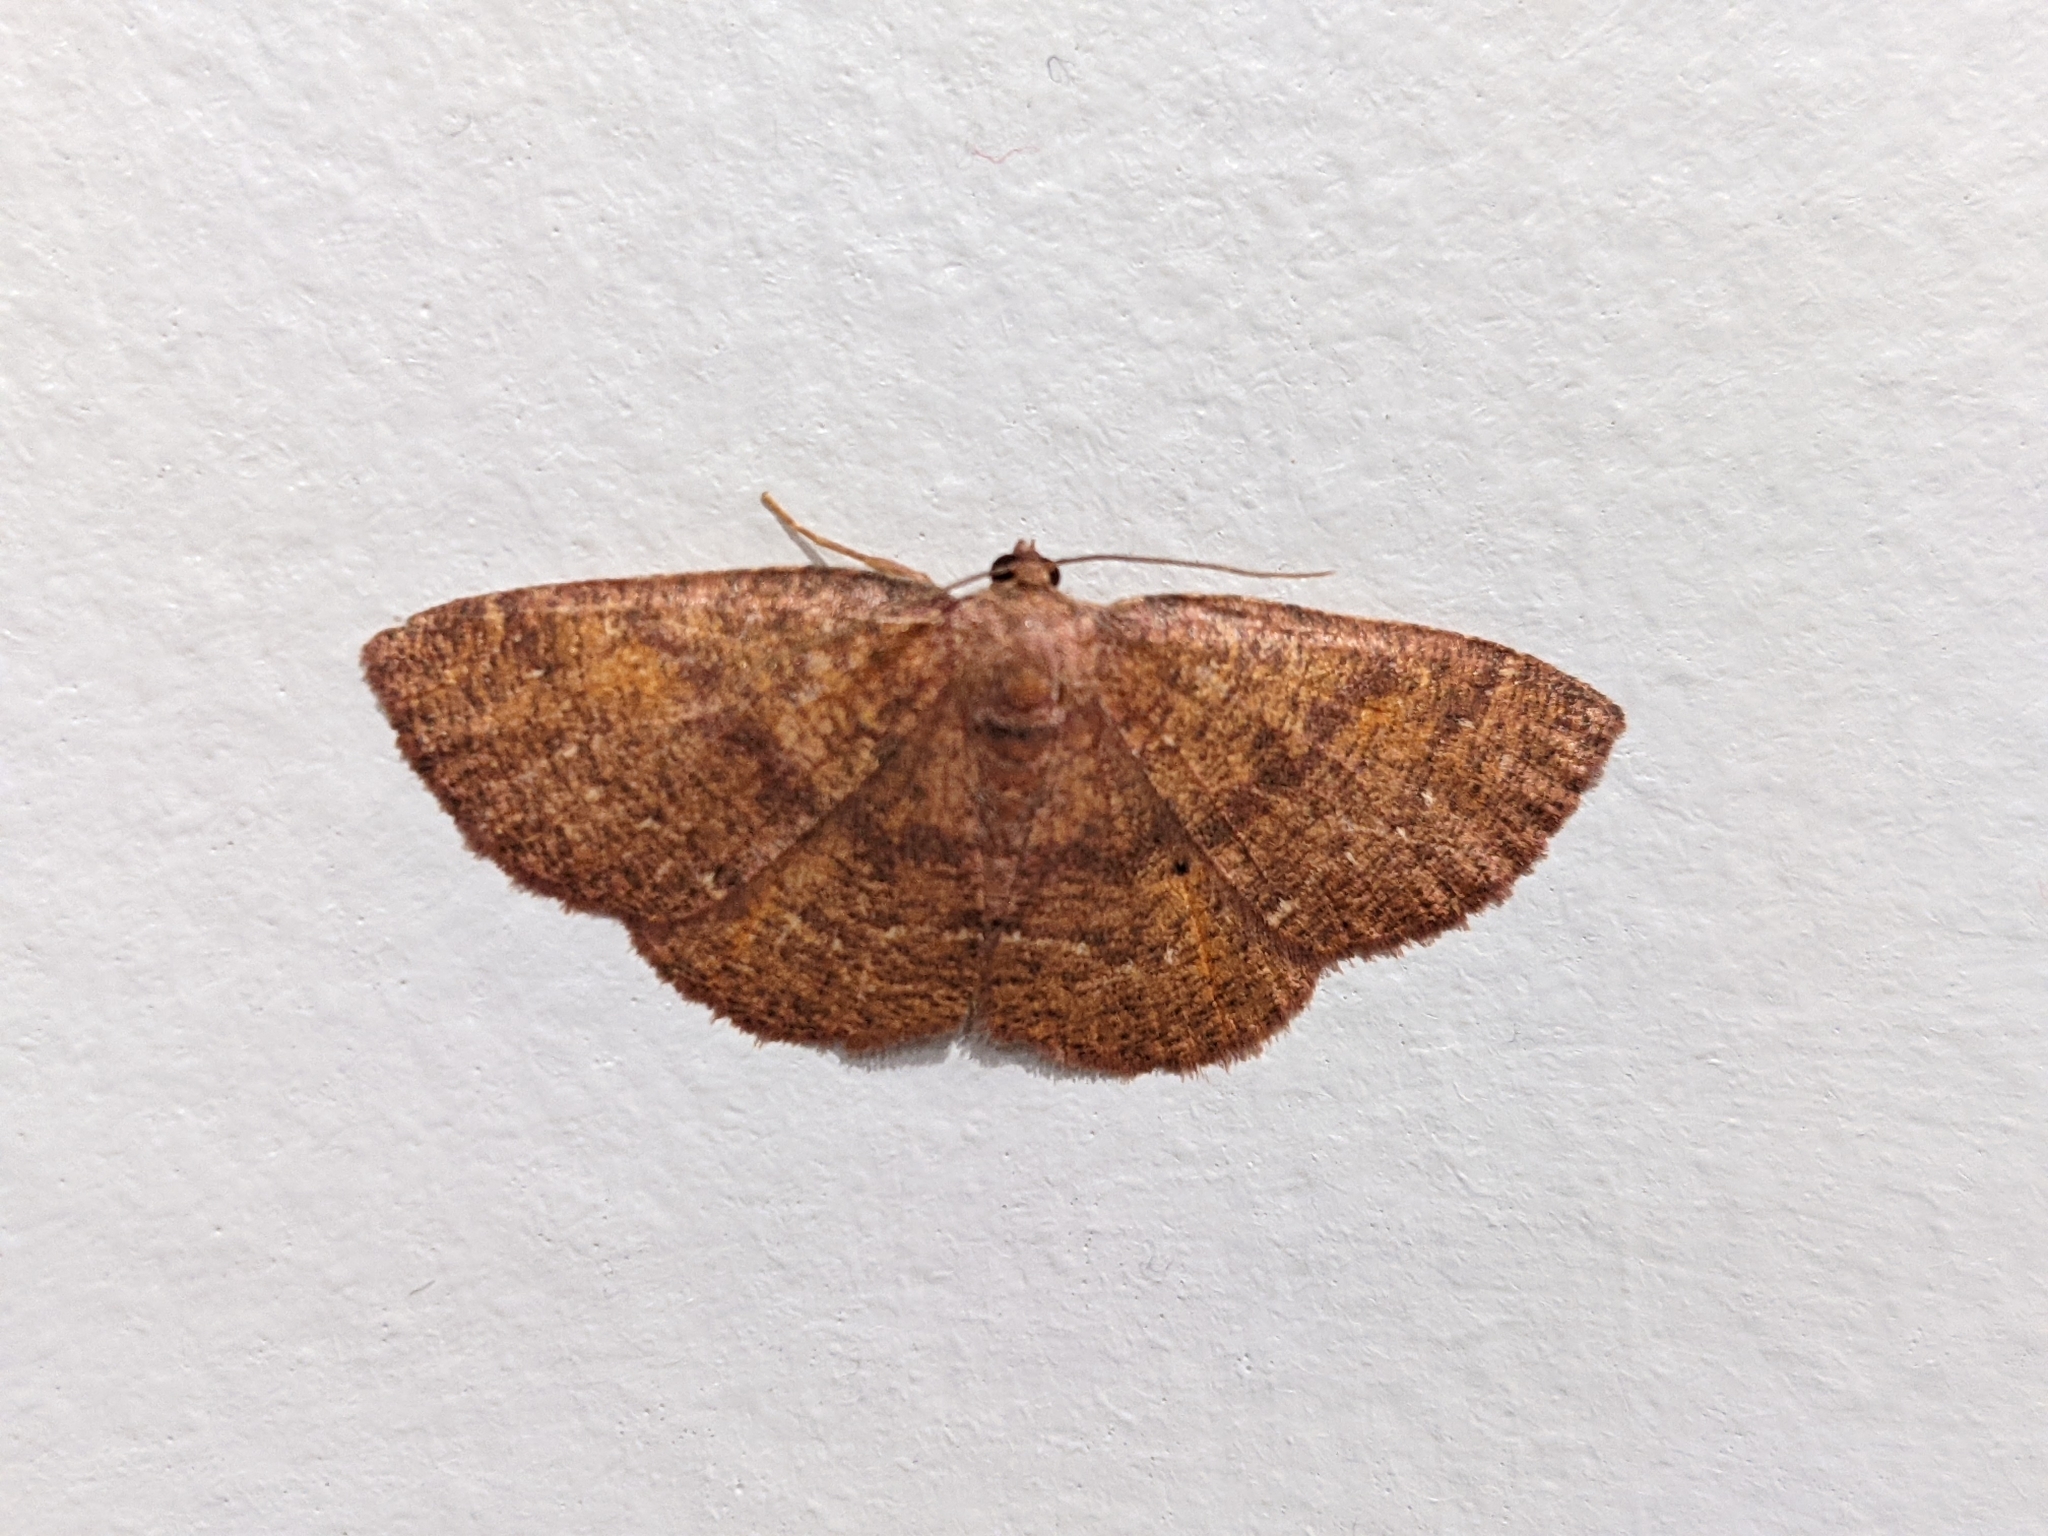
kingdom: Animalia
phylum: Arthropoda
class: Insecta
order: Lepidoptera
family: Geometridae
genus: Ilexia
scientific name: Ilexia intractata
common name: Black-dotted ruddy moth
